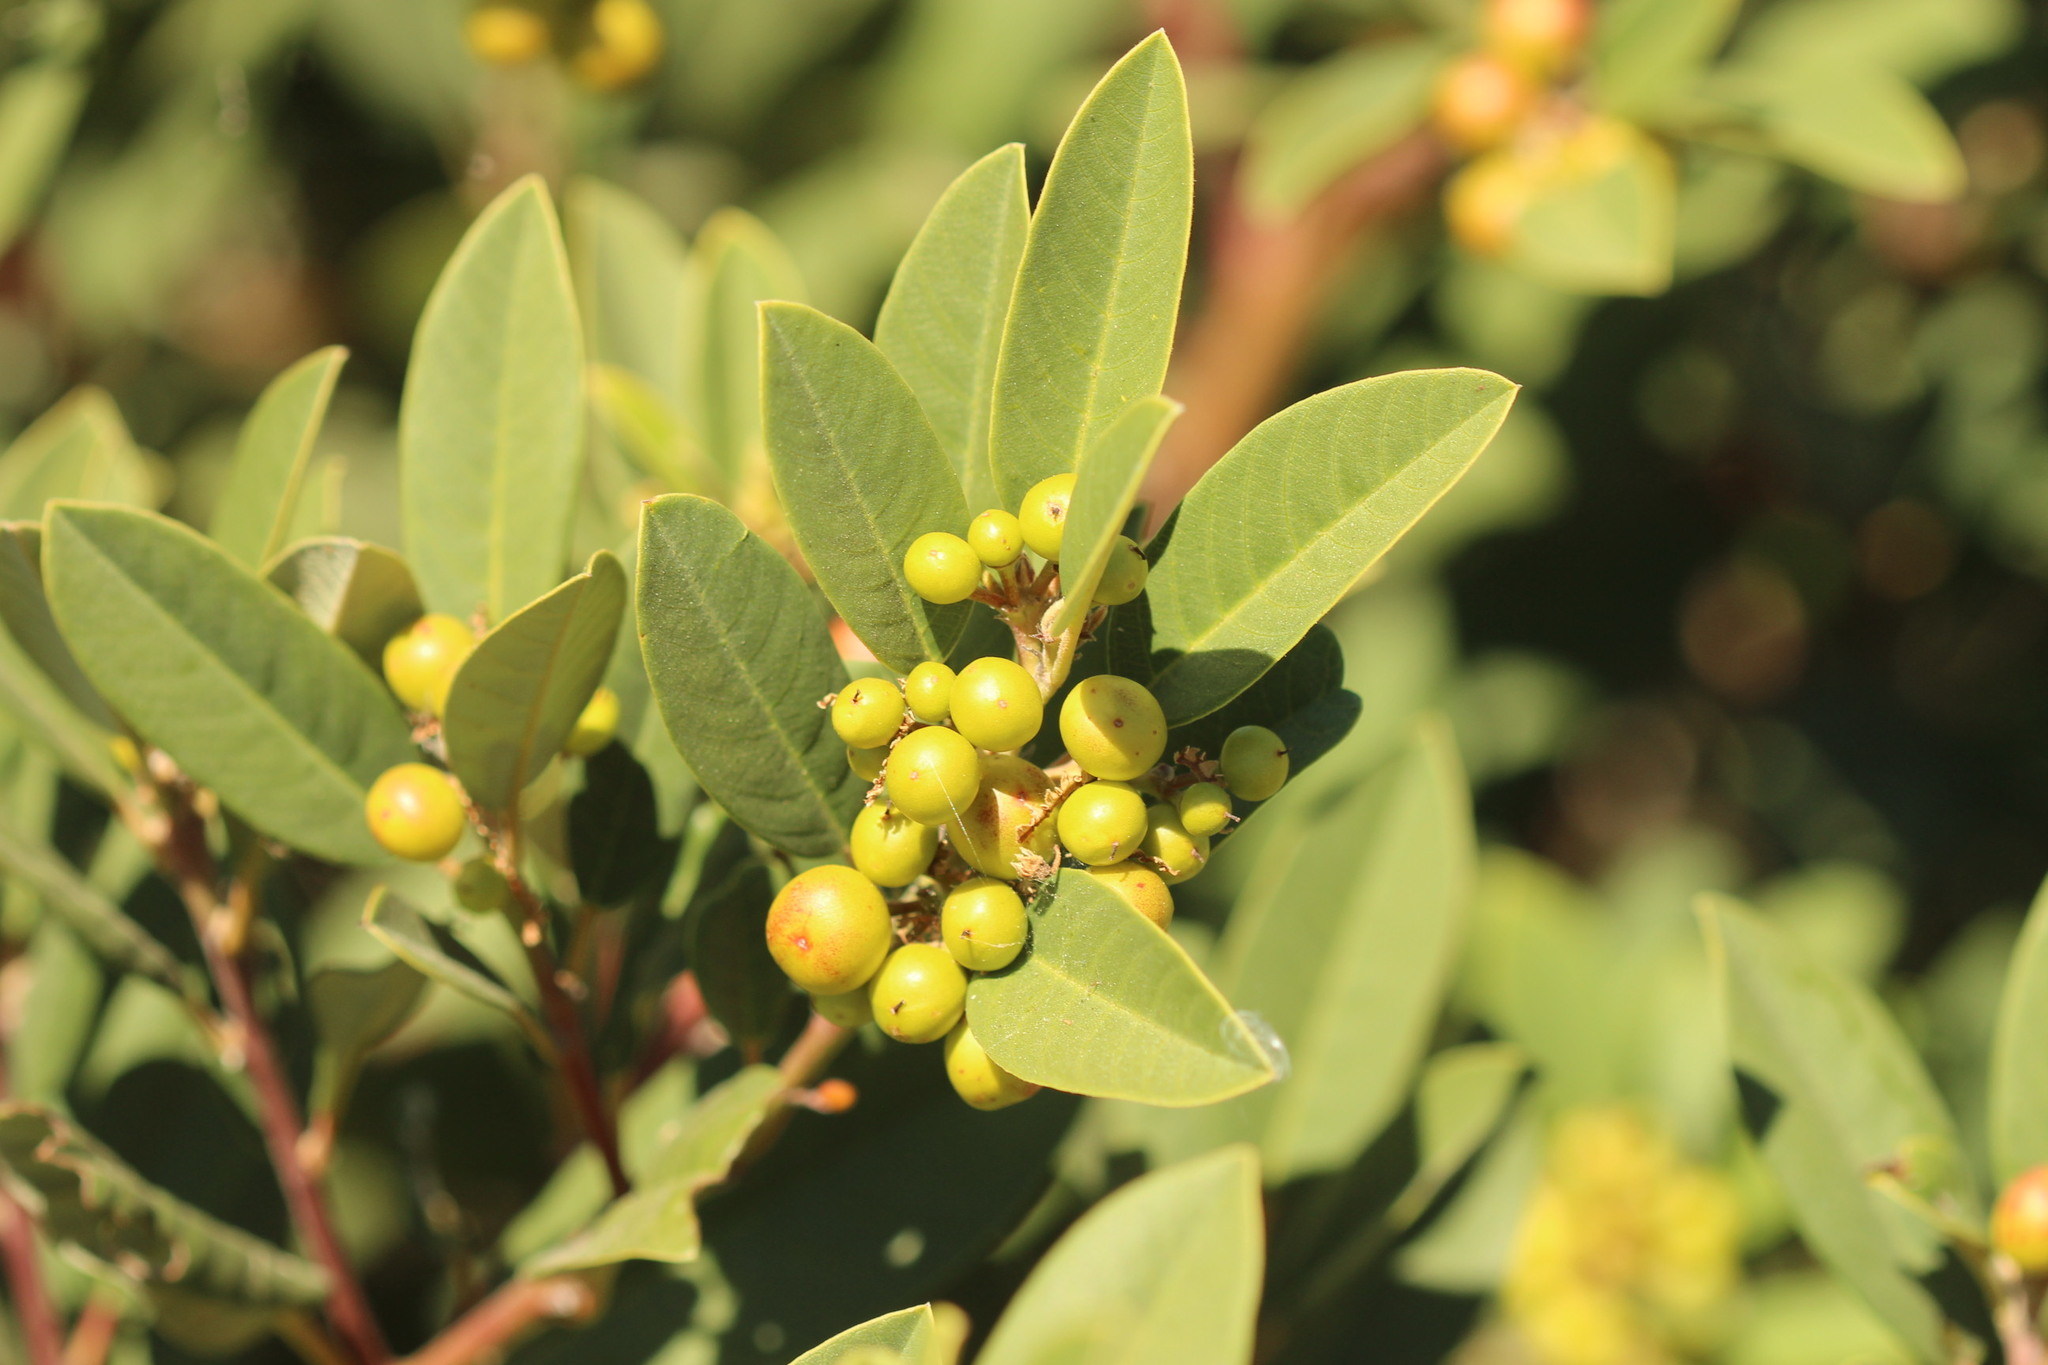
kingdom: Plantae
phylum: Tracheophyta
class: Magnoliopsida
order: Rosales
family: Rhamnaceae
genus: Frangula
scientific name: Frangula californica
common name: California buckthorn
